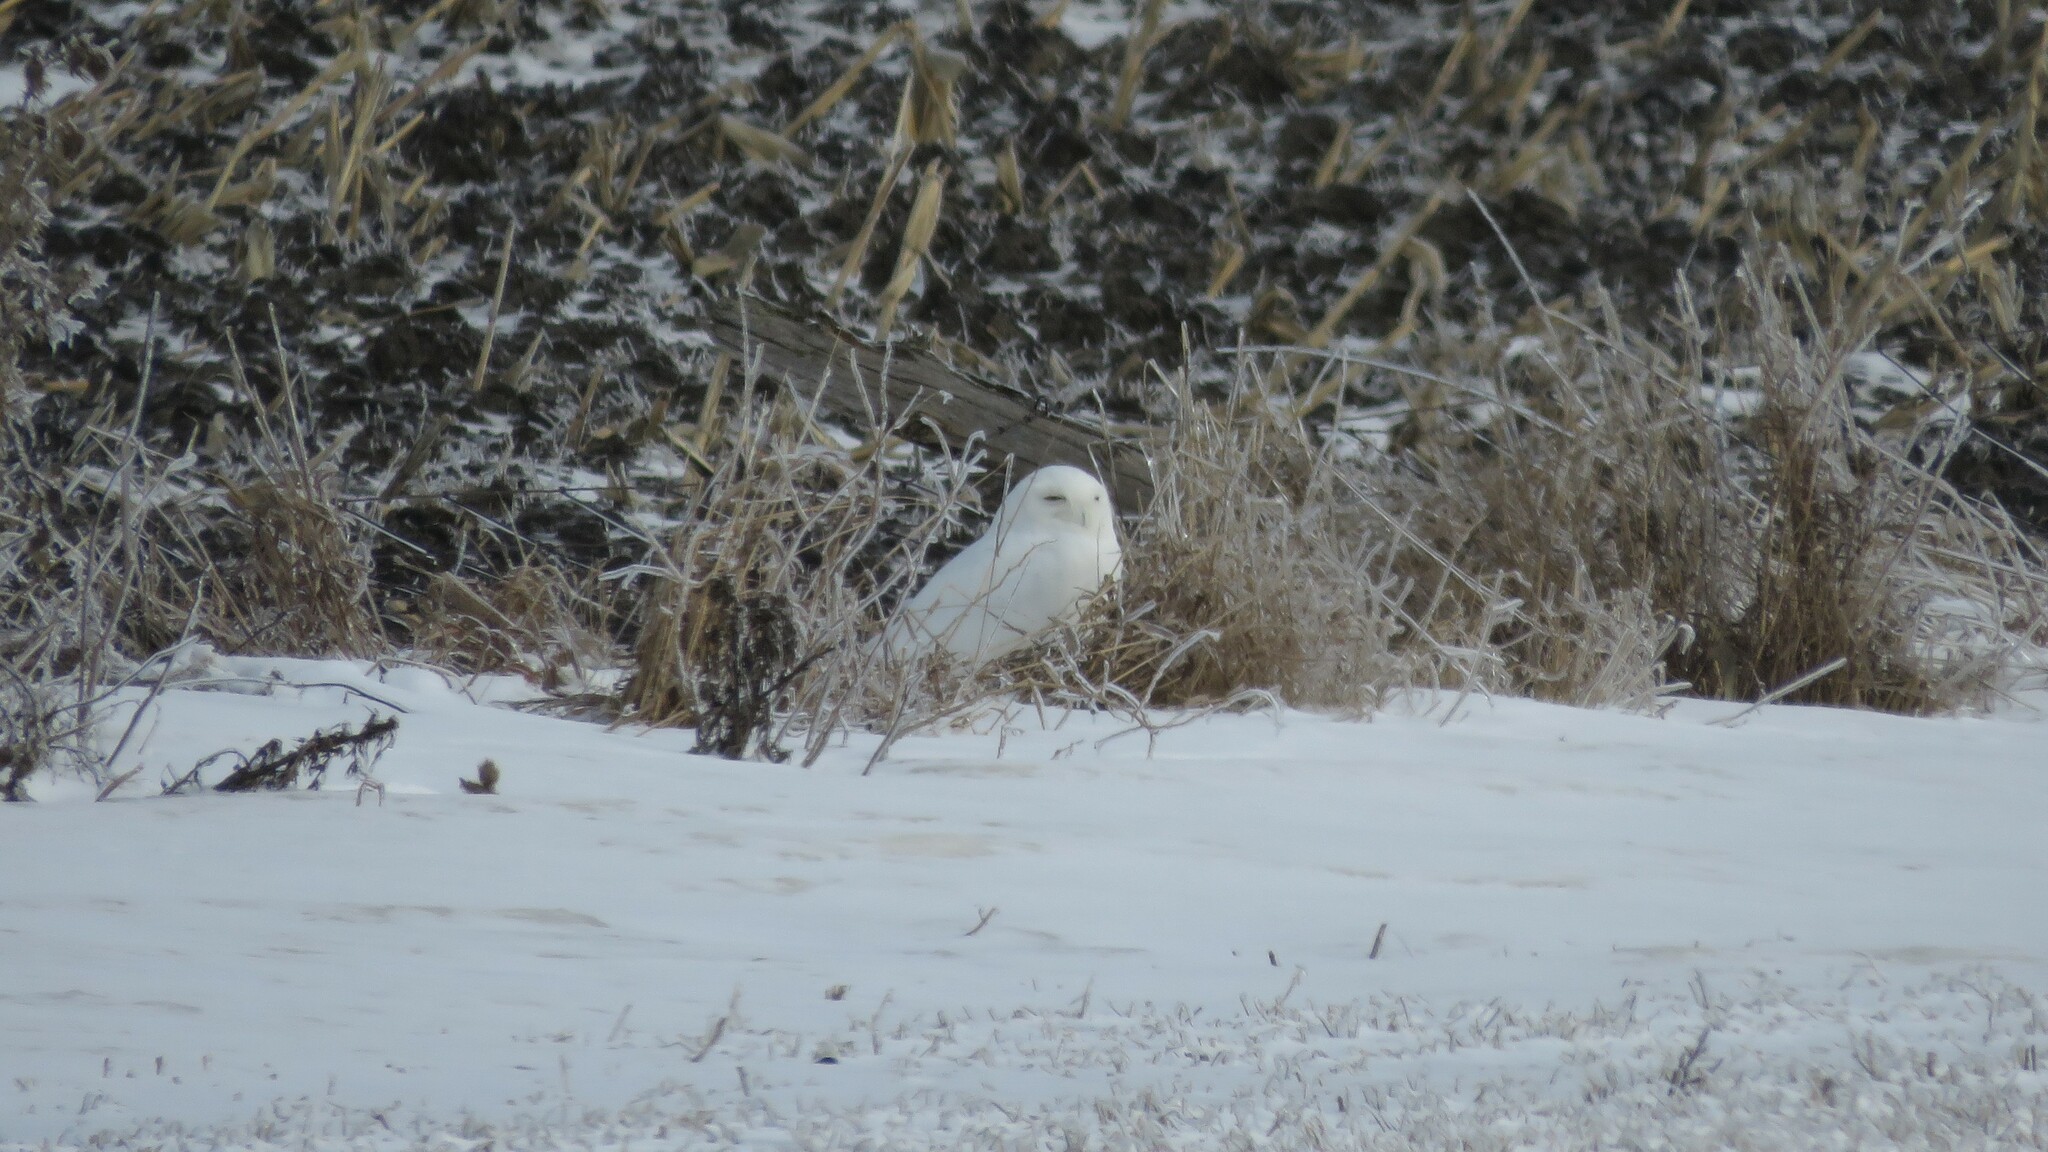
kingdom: Animalia
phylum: Chordata
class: Aves
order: Strigiformes
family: Strigidae
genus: Bubo
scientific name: Bubo scandiacus
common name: Snowy owl
